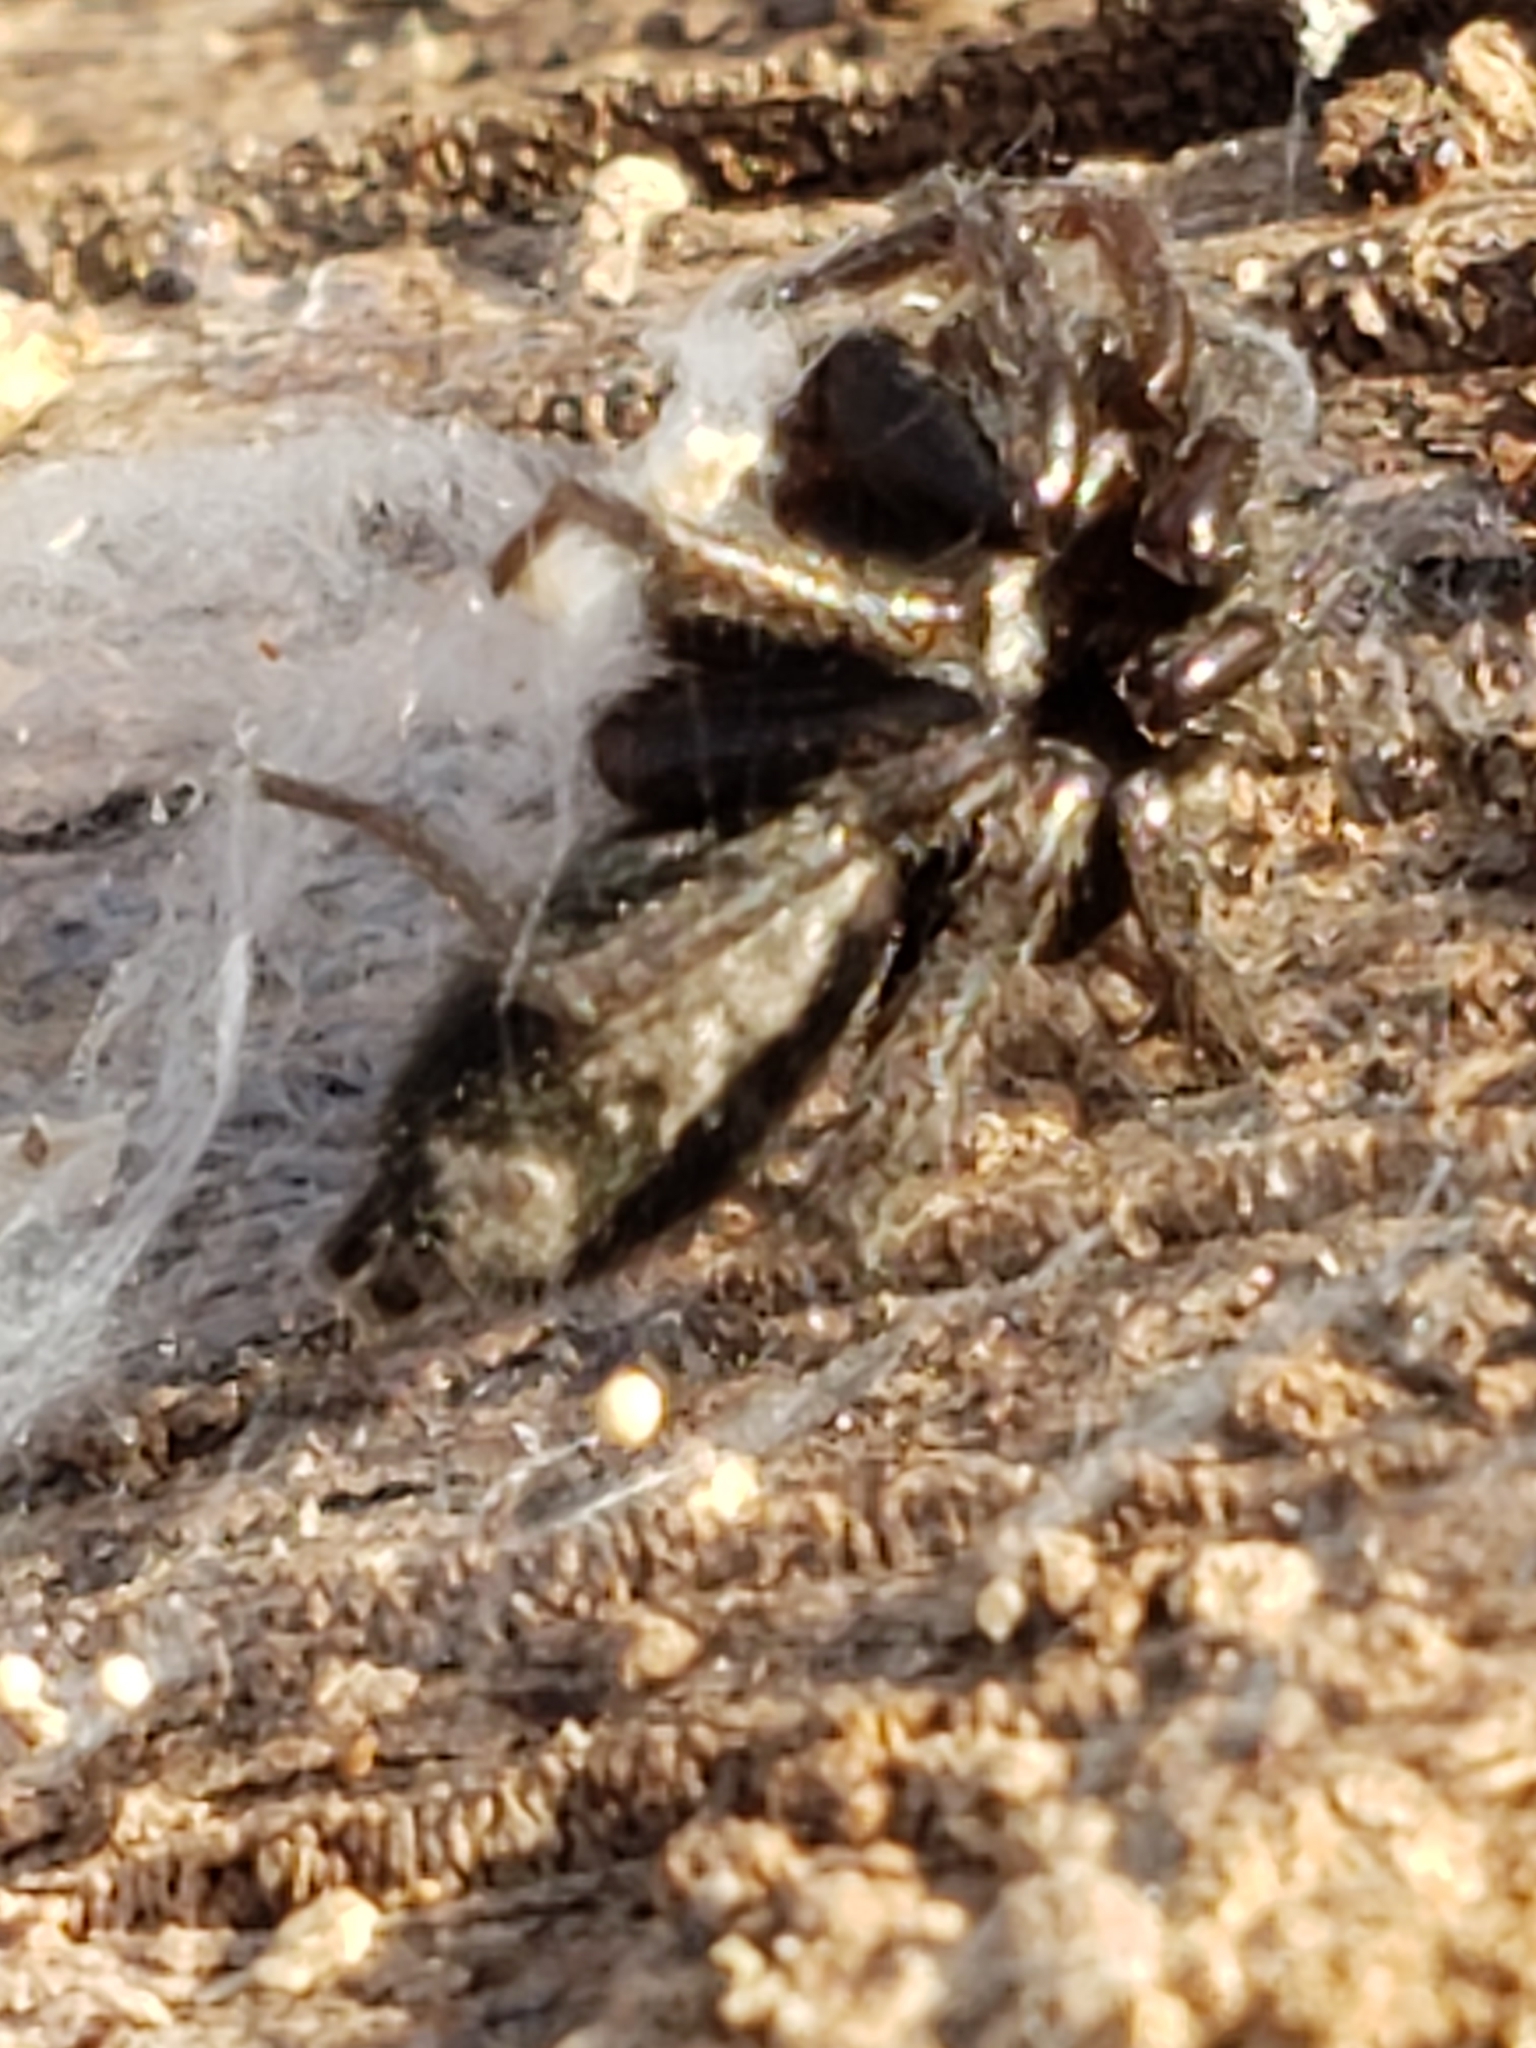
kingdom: Animalia
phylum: Arthropoda
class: Arachnida
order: Araneae
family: Gnaphosidae
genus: Herpyllus
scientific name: Herpyllus ecclesiasticus
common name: Eastern parson spider
